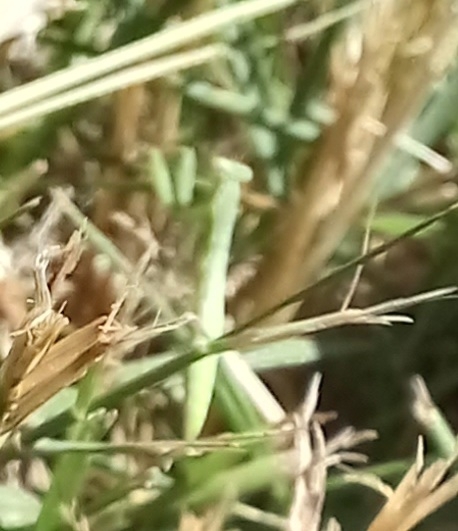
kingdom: Animalia
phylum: Arthropoda
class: Insecta
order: Mantodea
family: Mantidae
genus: Mantis
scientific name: Mantis religiosa
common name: Praying mantis
